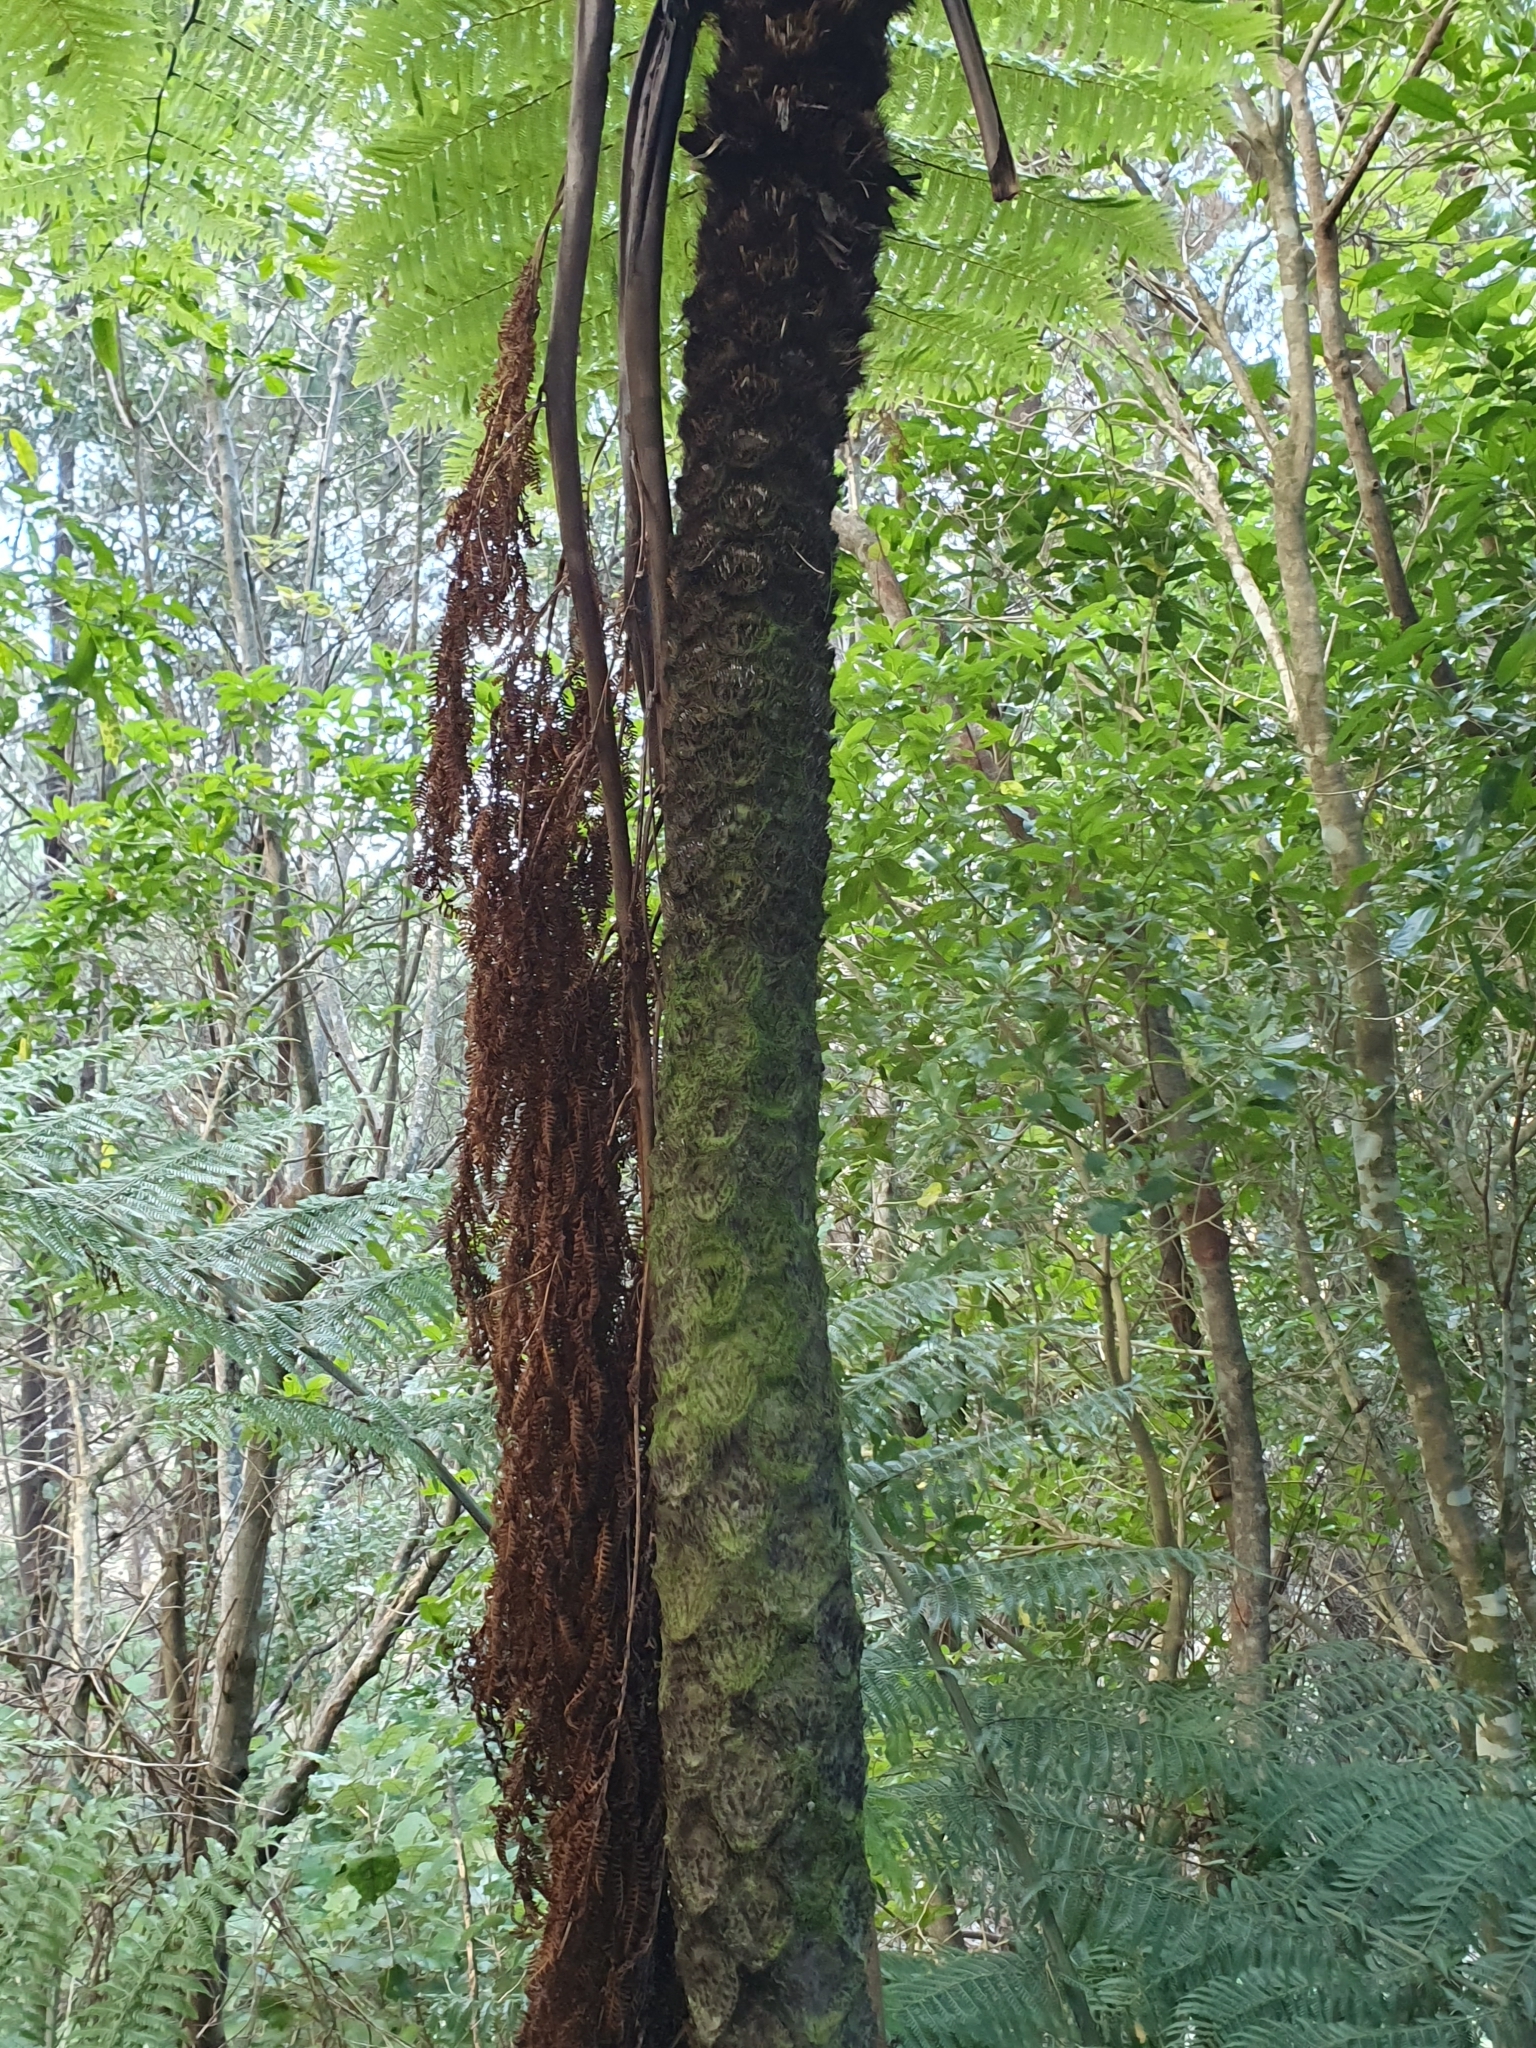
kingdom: Plantae
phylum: Tracheophyta
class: Polypodiopsida
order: Cyatheales
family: Cyatheaceae
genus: Sphaeropteris
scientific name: Sphaeropteris medullaris
